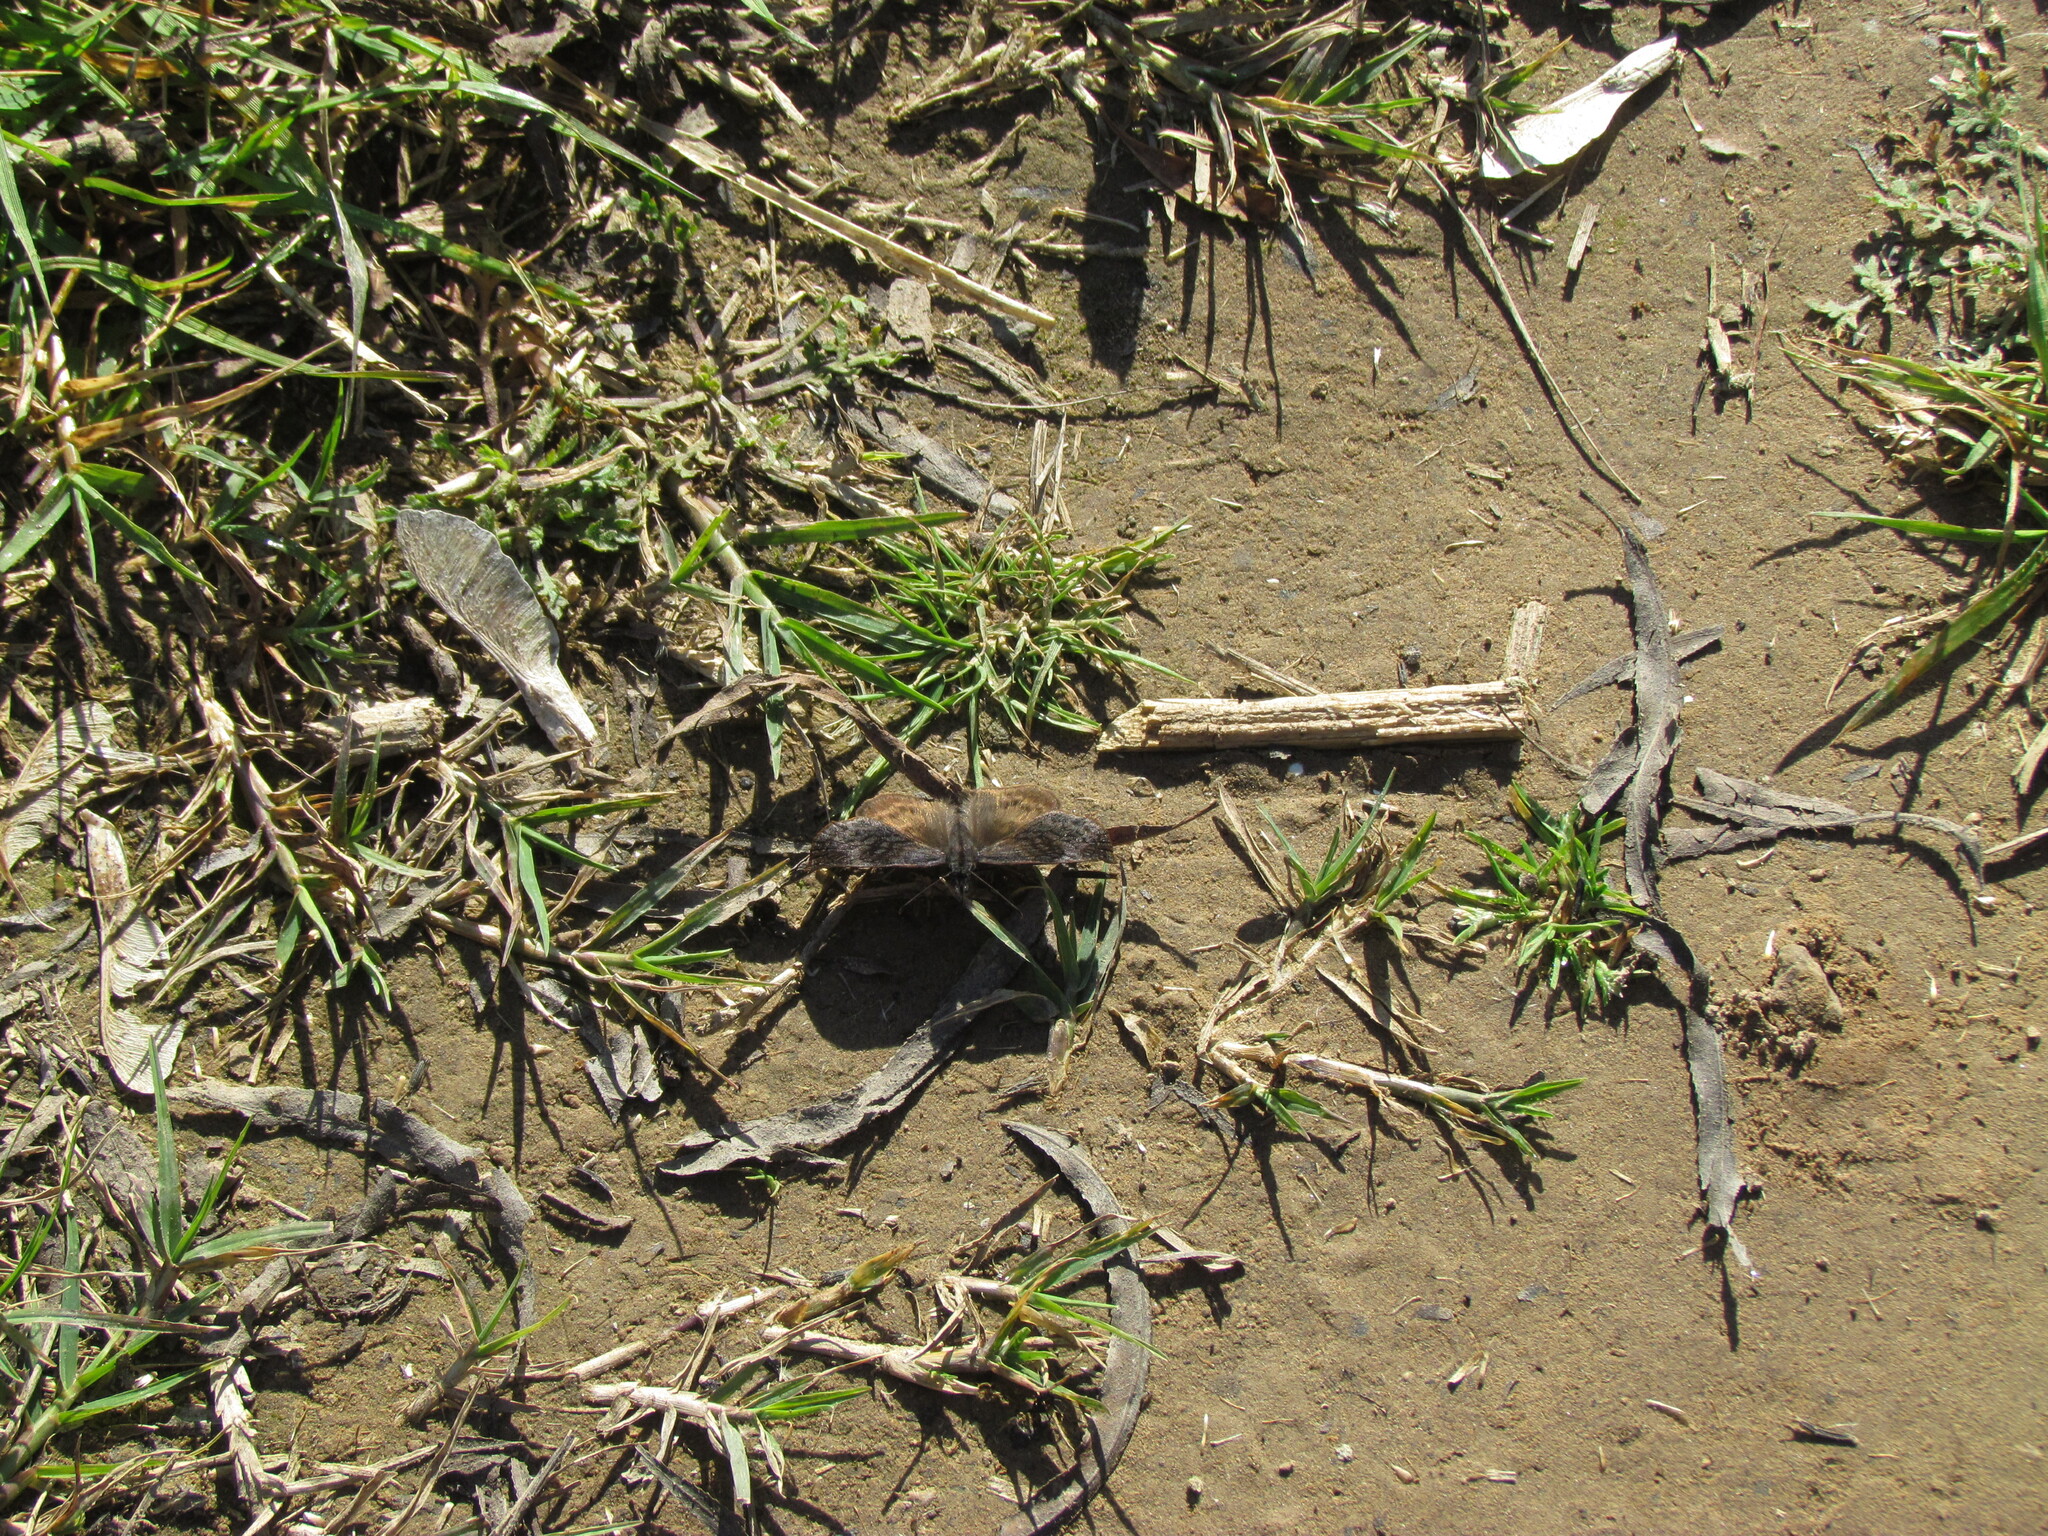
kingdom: Animalia
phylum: Arthropoda
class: Insecta
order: Lepidoptera
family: Hesperiidae
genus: Theagenes
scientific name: Theagenes dichrous
